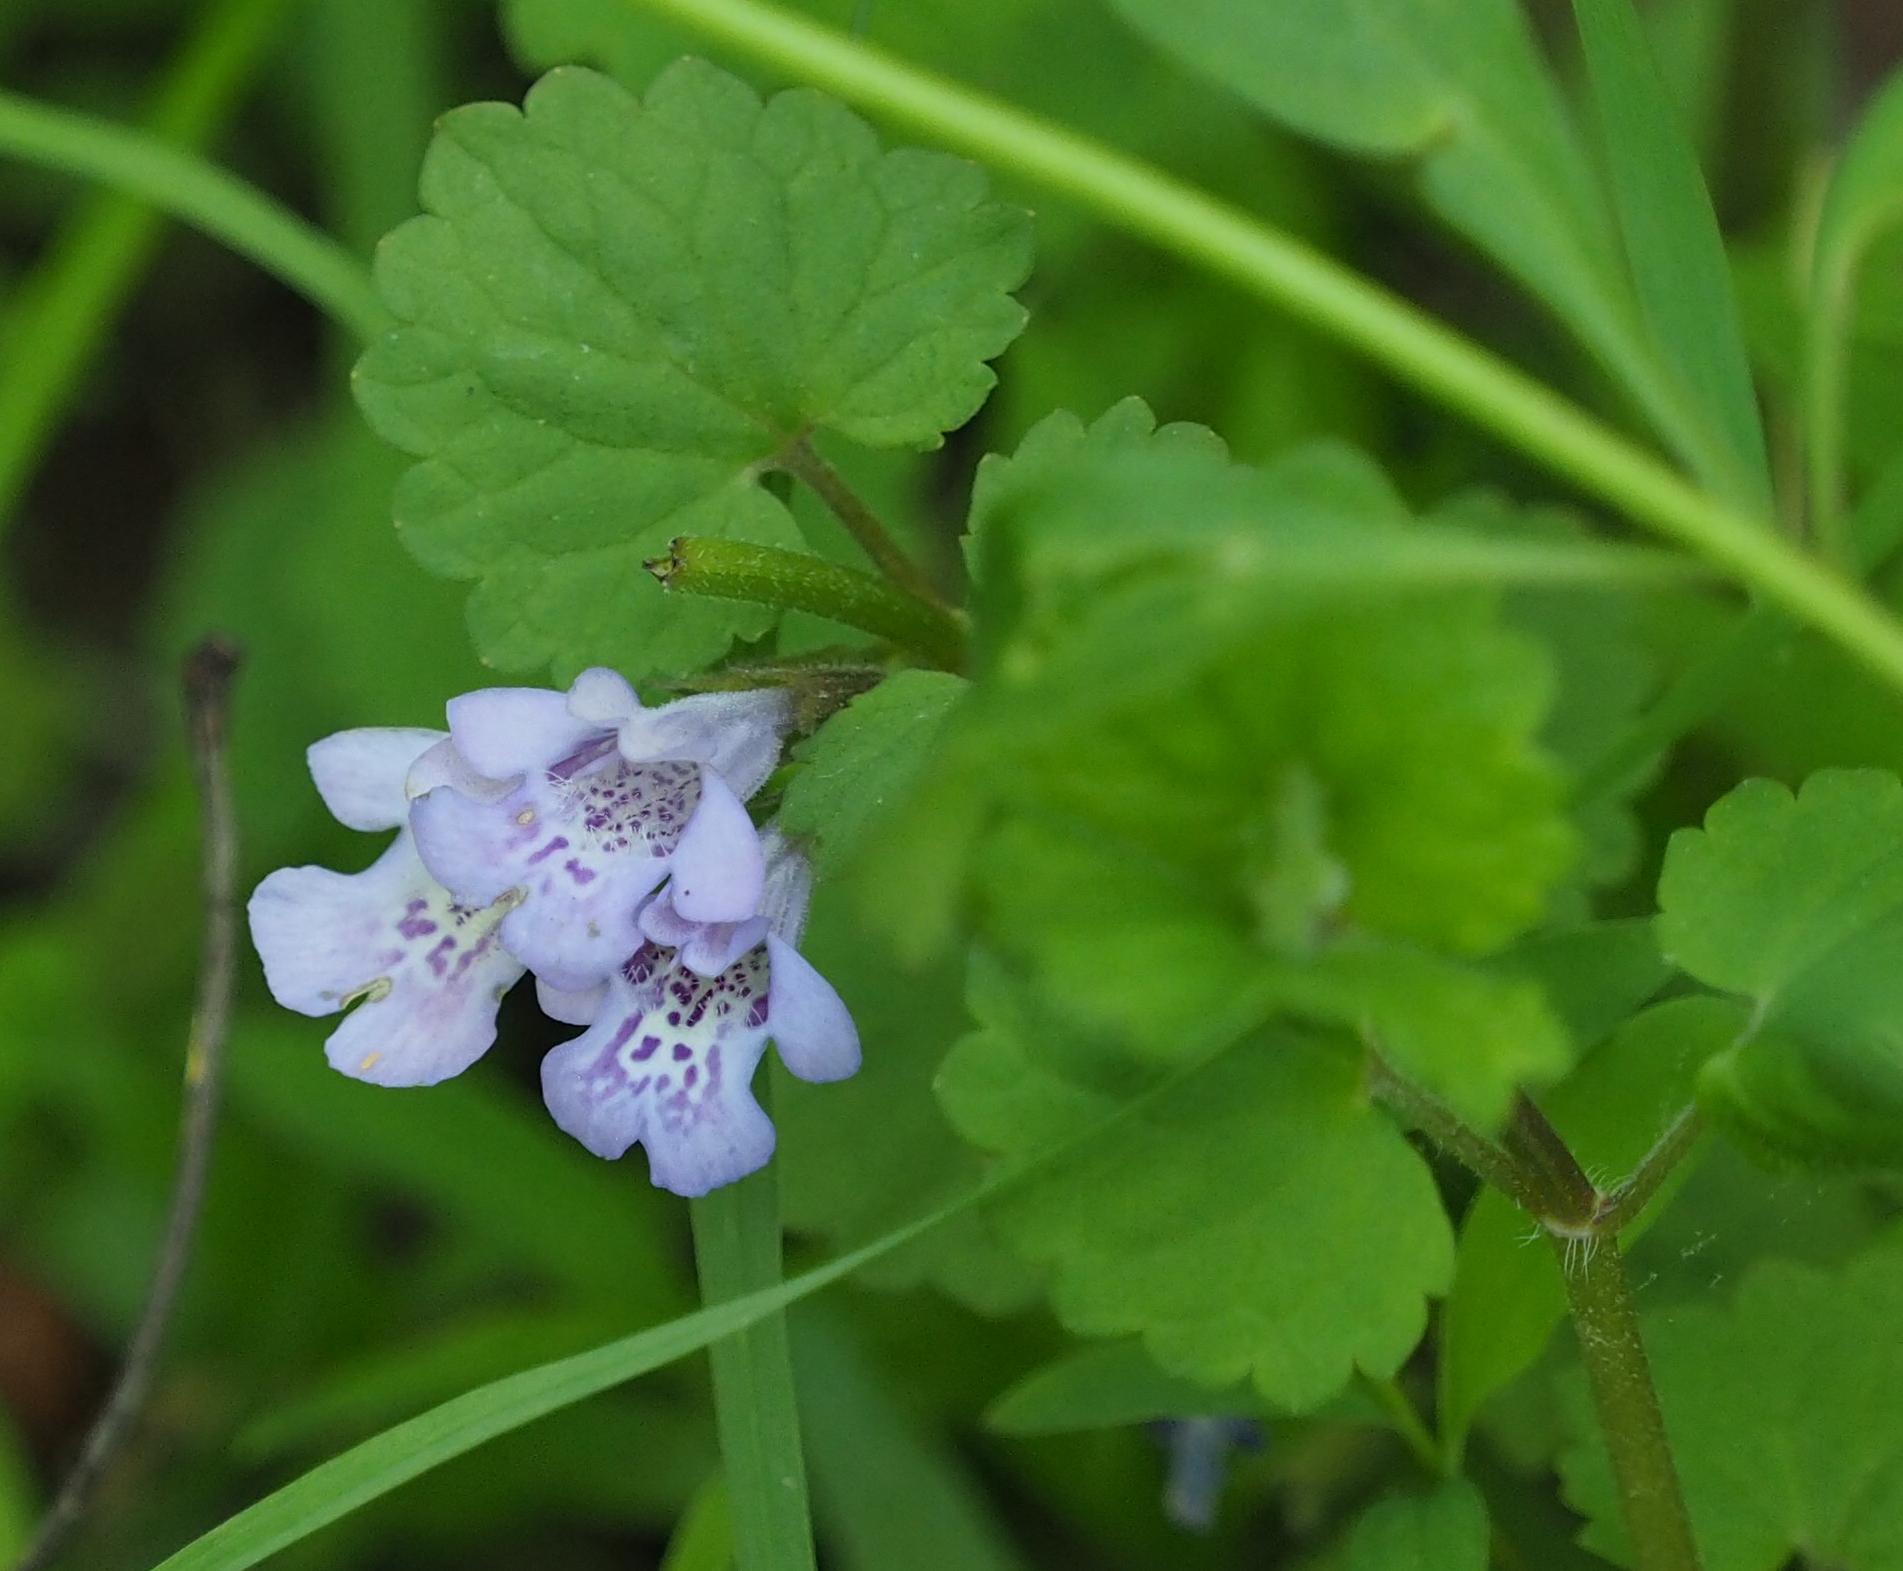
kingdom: Plantae
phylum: Tracheophyta
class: Magnoliopsida
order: Lamiales
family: Lamiaceae
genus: Glechoma
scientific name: Glechoma hederacea
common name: Ground ivy
